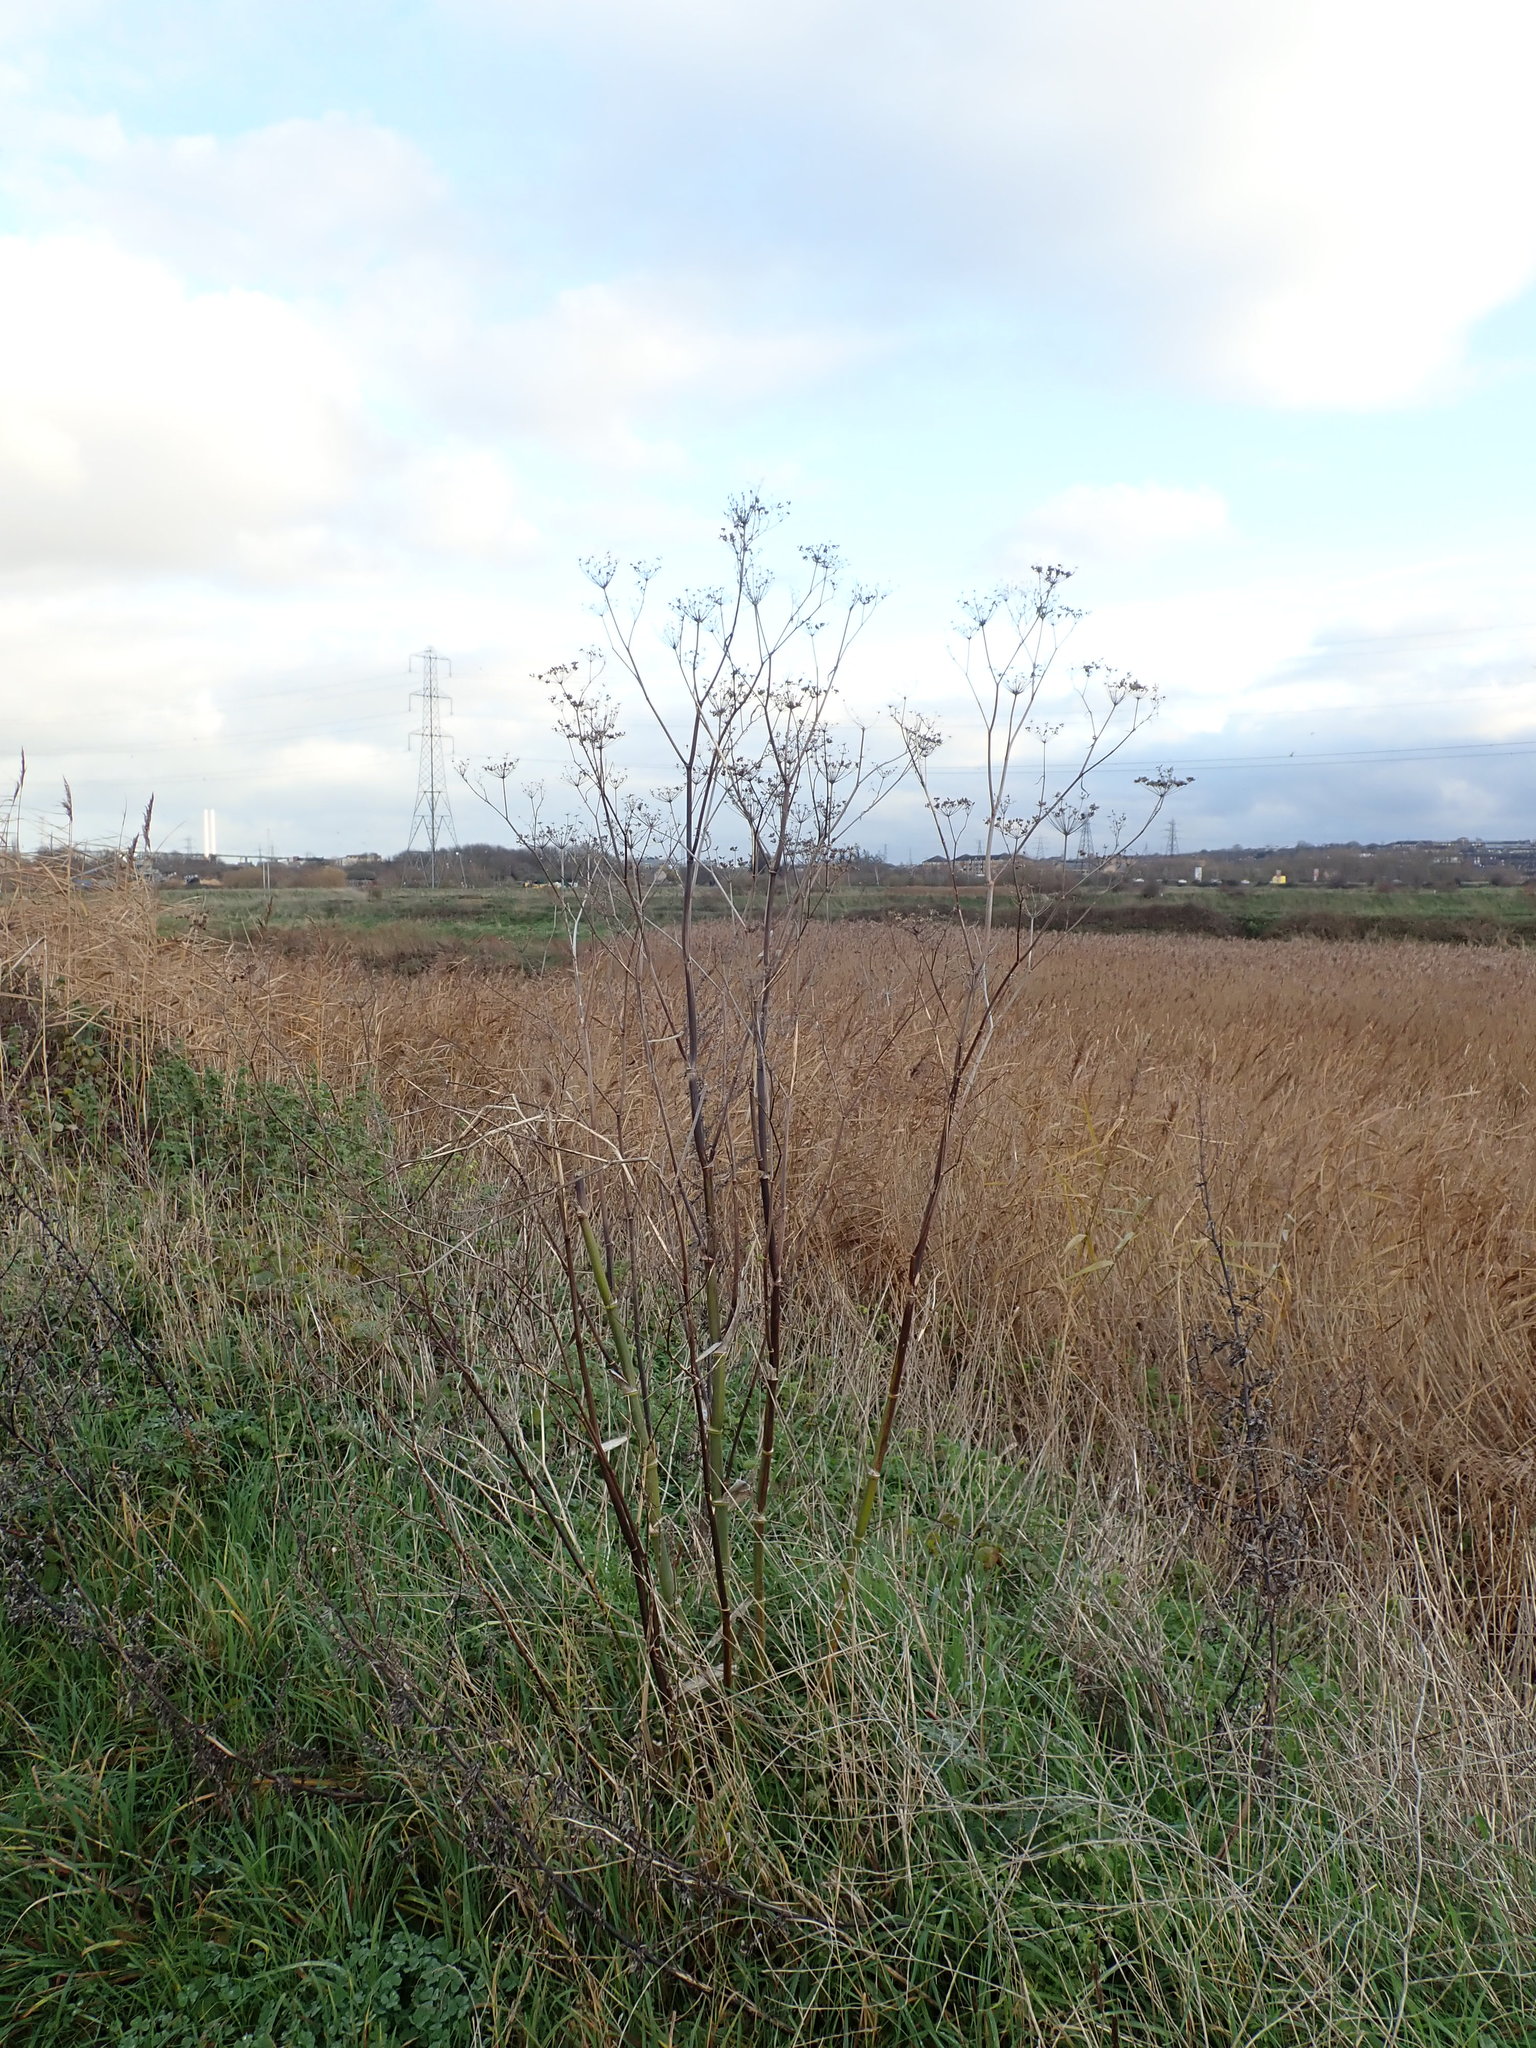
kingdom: Plantae
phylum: Tracheophyta
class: Magnoliopsida
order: Apiales
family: Apiaceae
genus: Foeniculum
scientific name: Foeniculum vulgare
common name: Fennel
